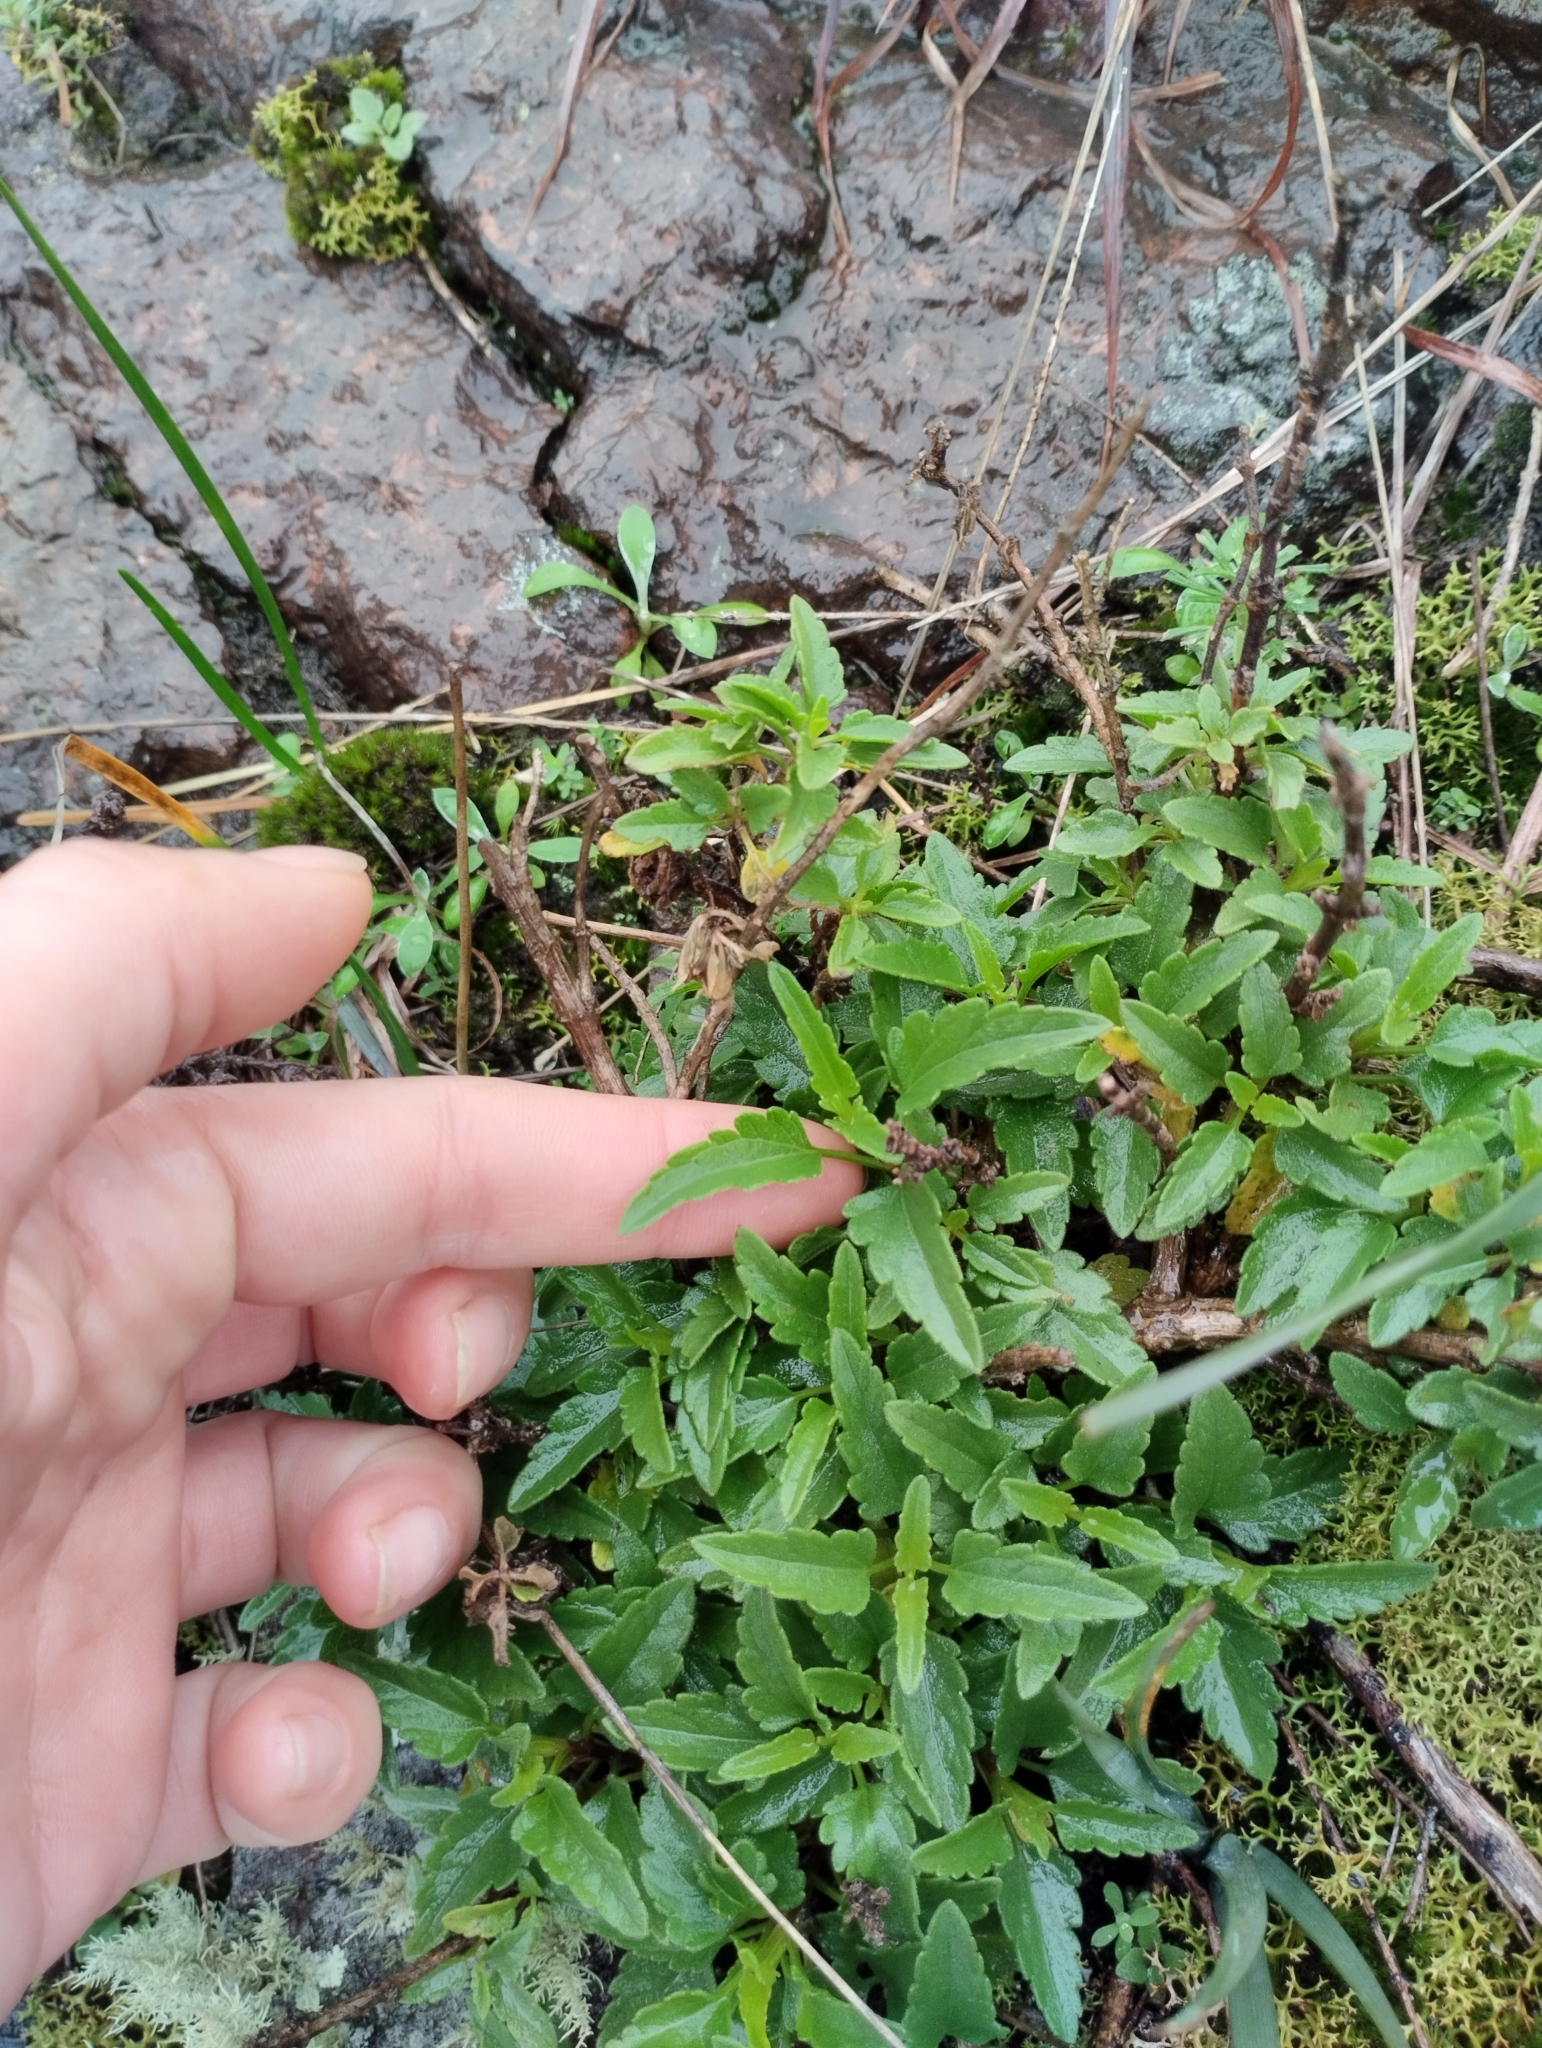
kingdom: Plantae
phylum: Tracheophyta
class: Magnoliopsida
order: Asterales
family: Asteraceae
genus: Hatschbachiella
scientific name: Hatschbachiella tweedieana
